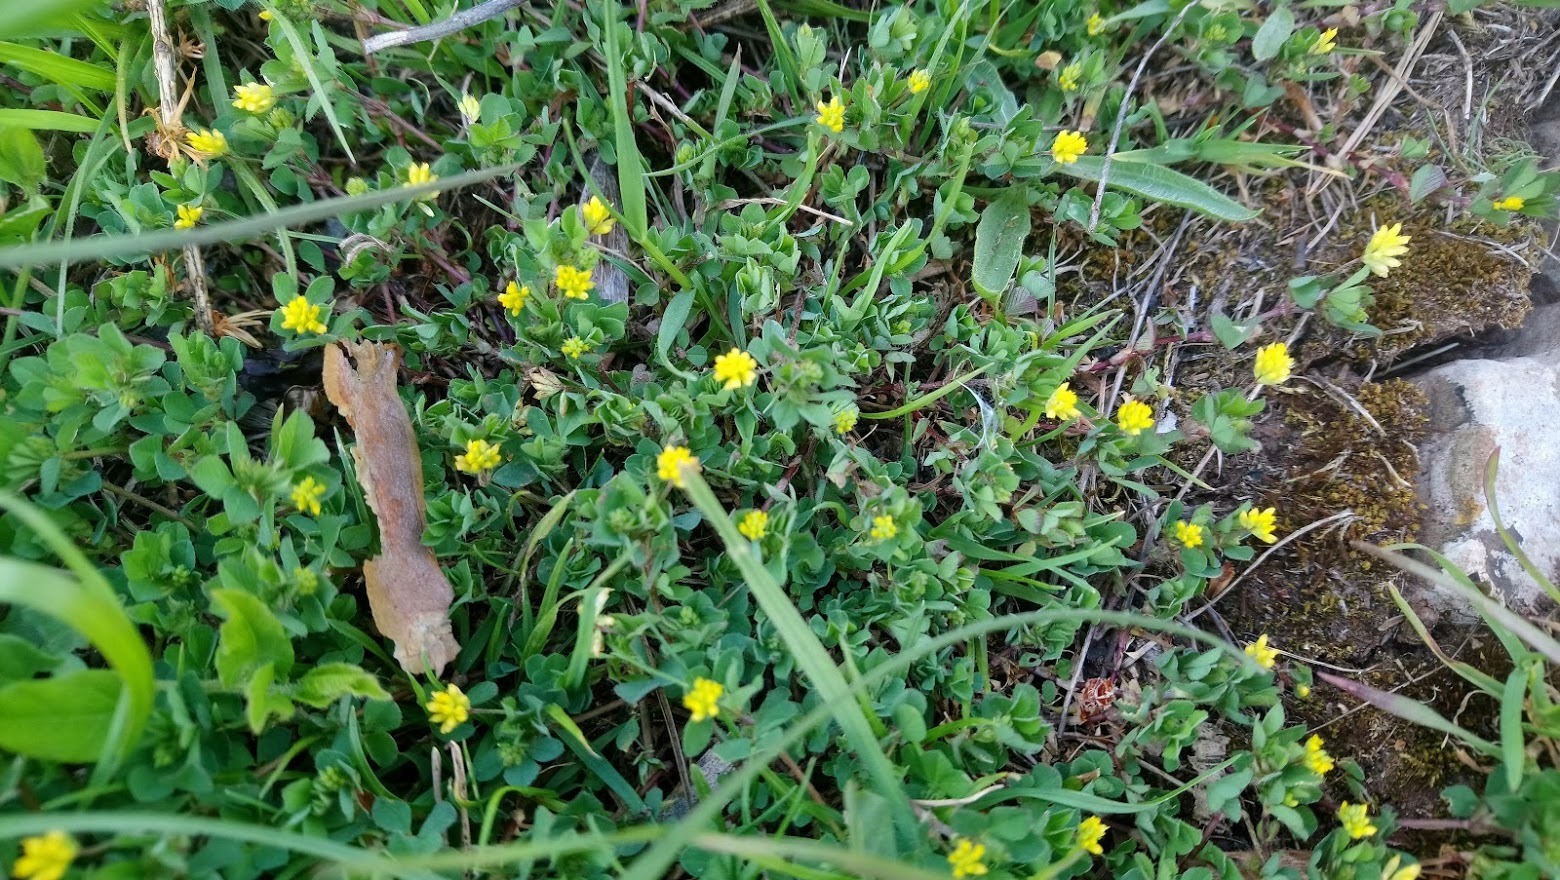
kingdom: Plantae
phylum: Tracheophyta
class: Magnoliopsida
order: Fabales
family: Fabaceae
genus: Trifolium
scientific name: Trifolium dubium
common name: Suckling clover
